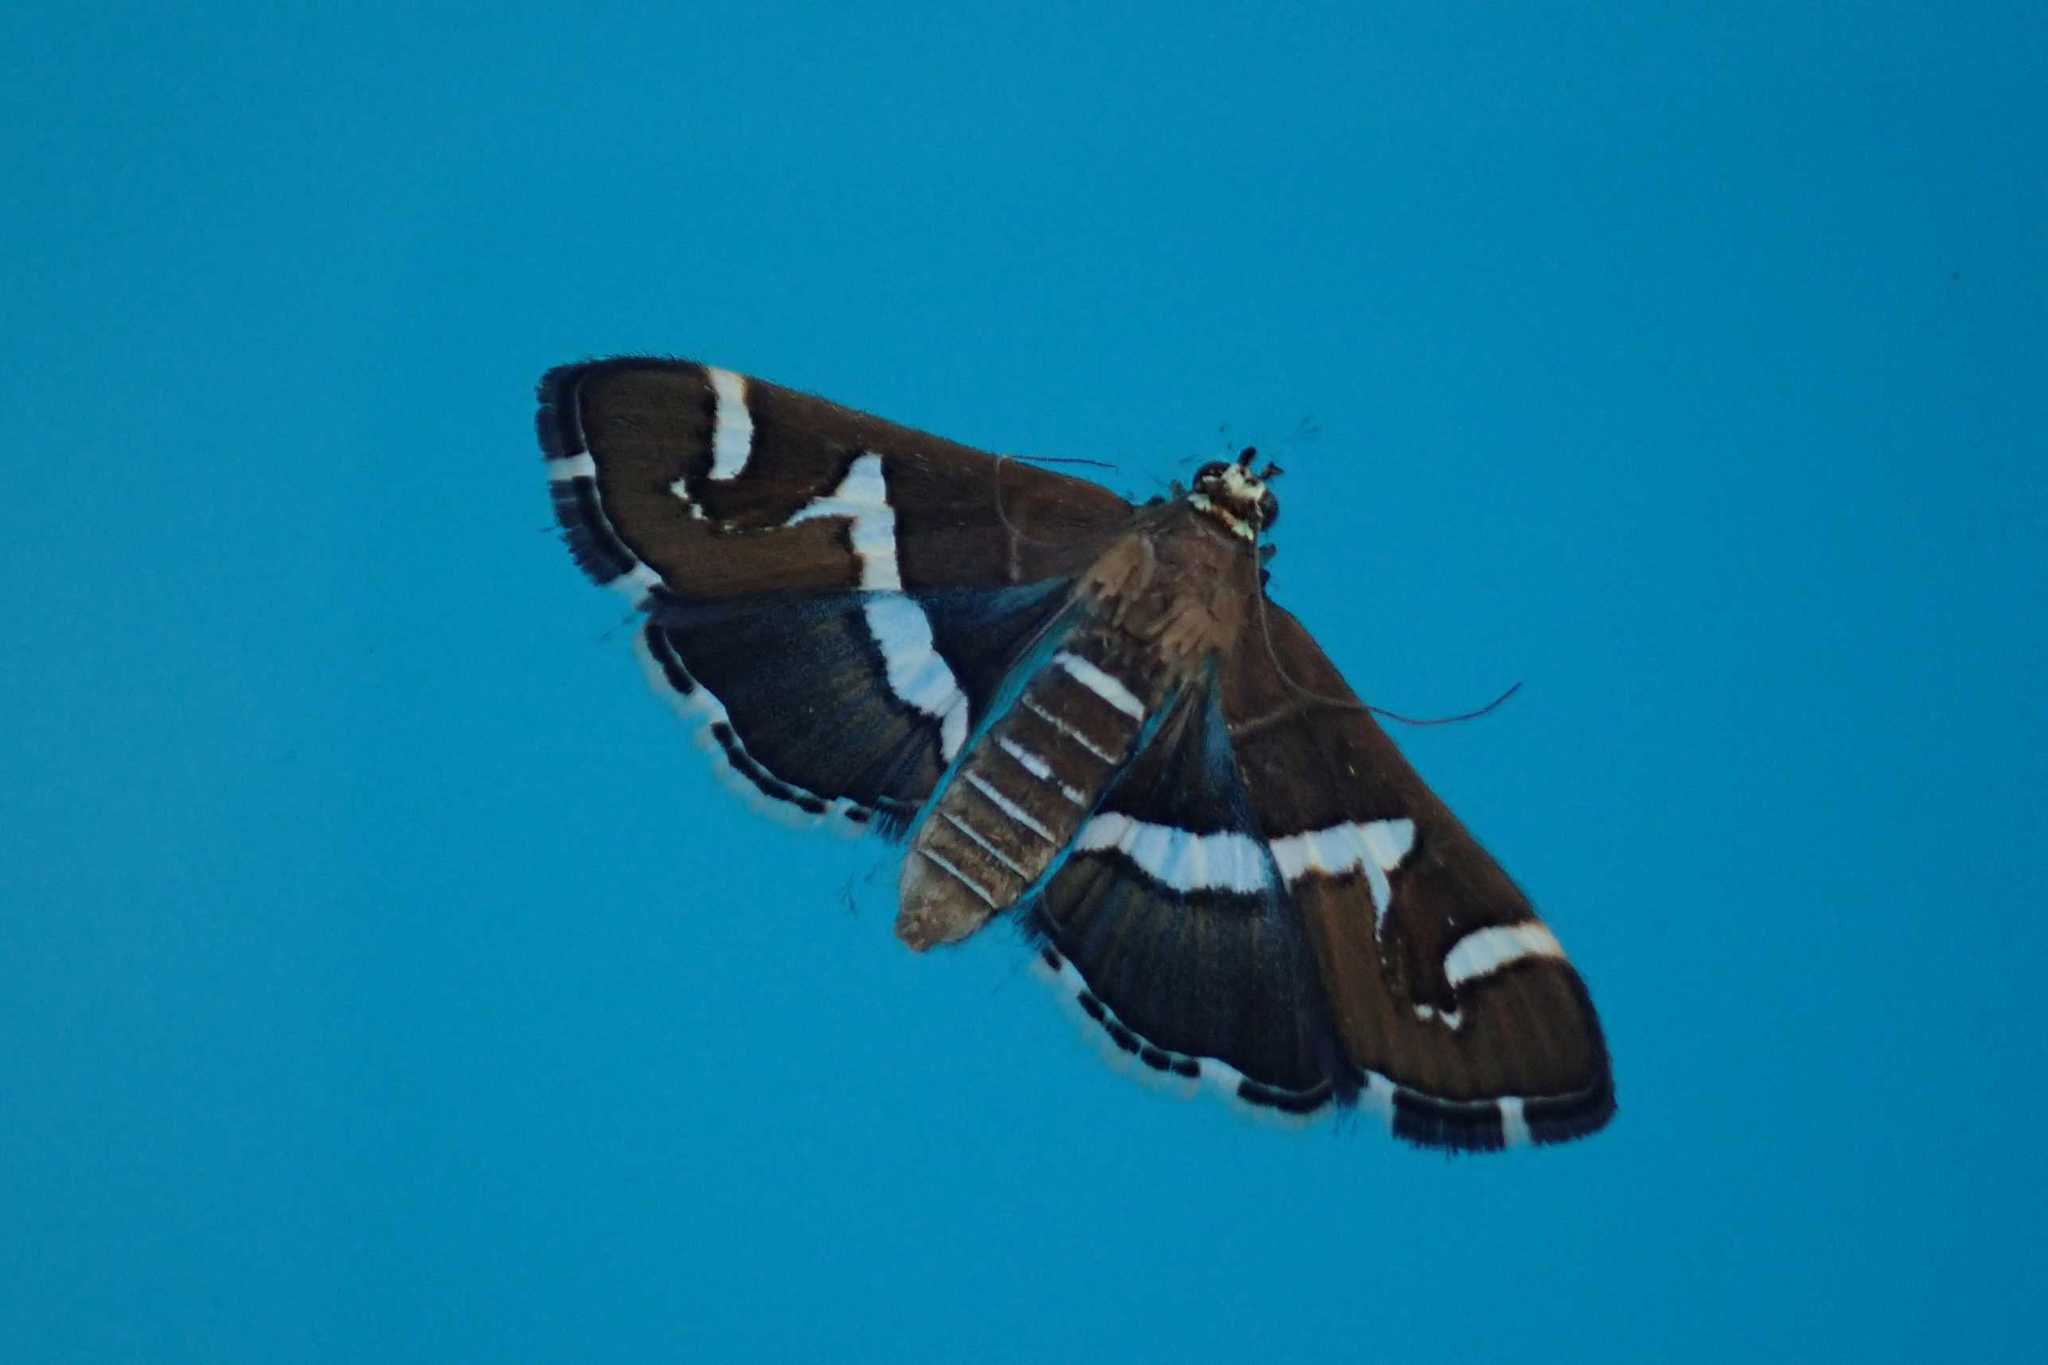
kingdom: Animalia
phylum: Arthropoda
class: Insecta
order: Lepidoptera
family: Crambidae
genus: Spoladea
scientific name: Spoladea recurvalis
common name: Beet webworm moth
